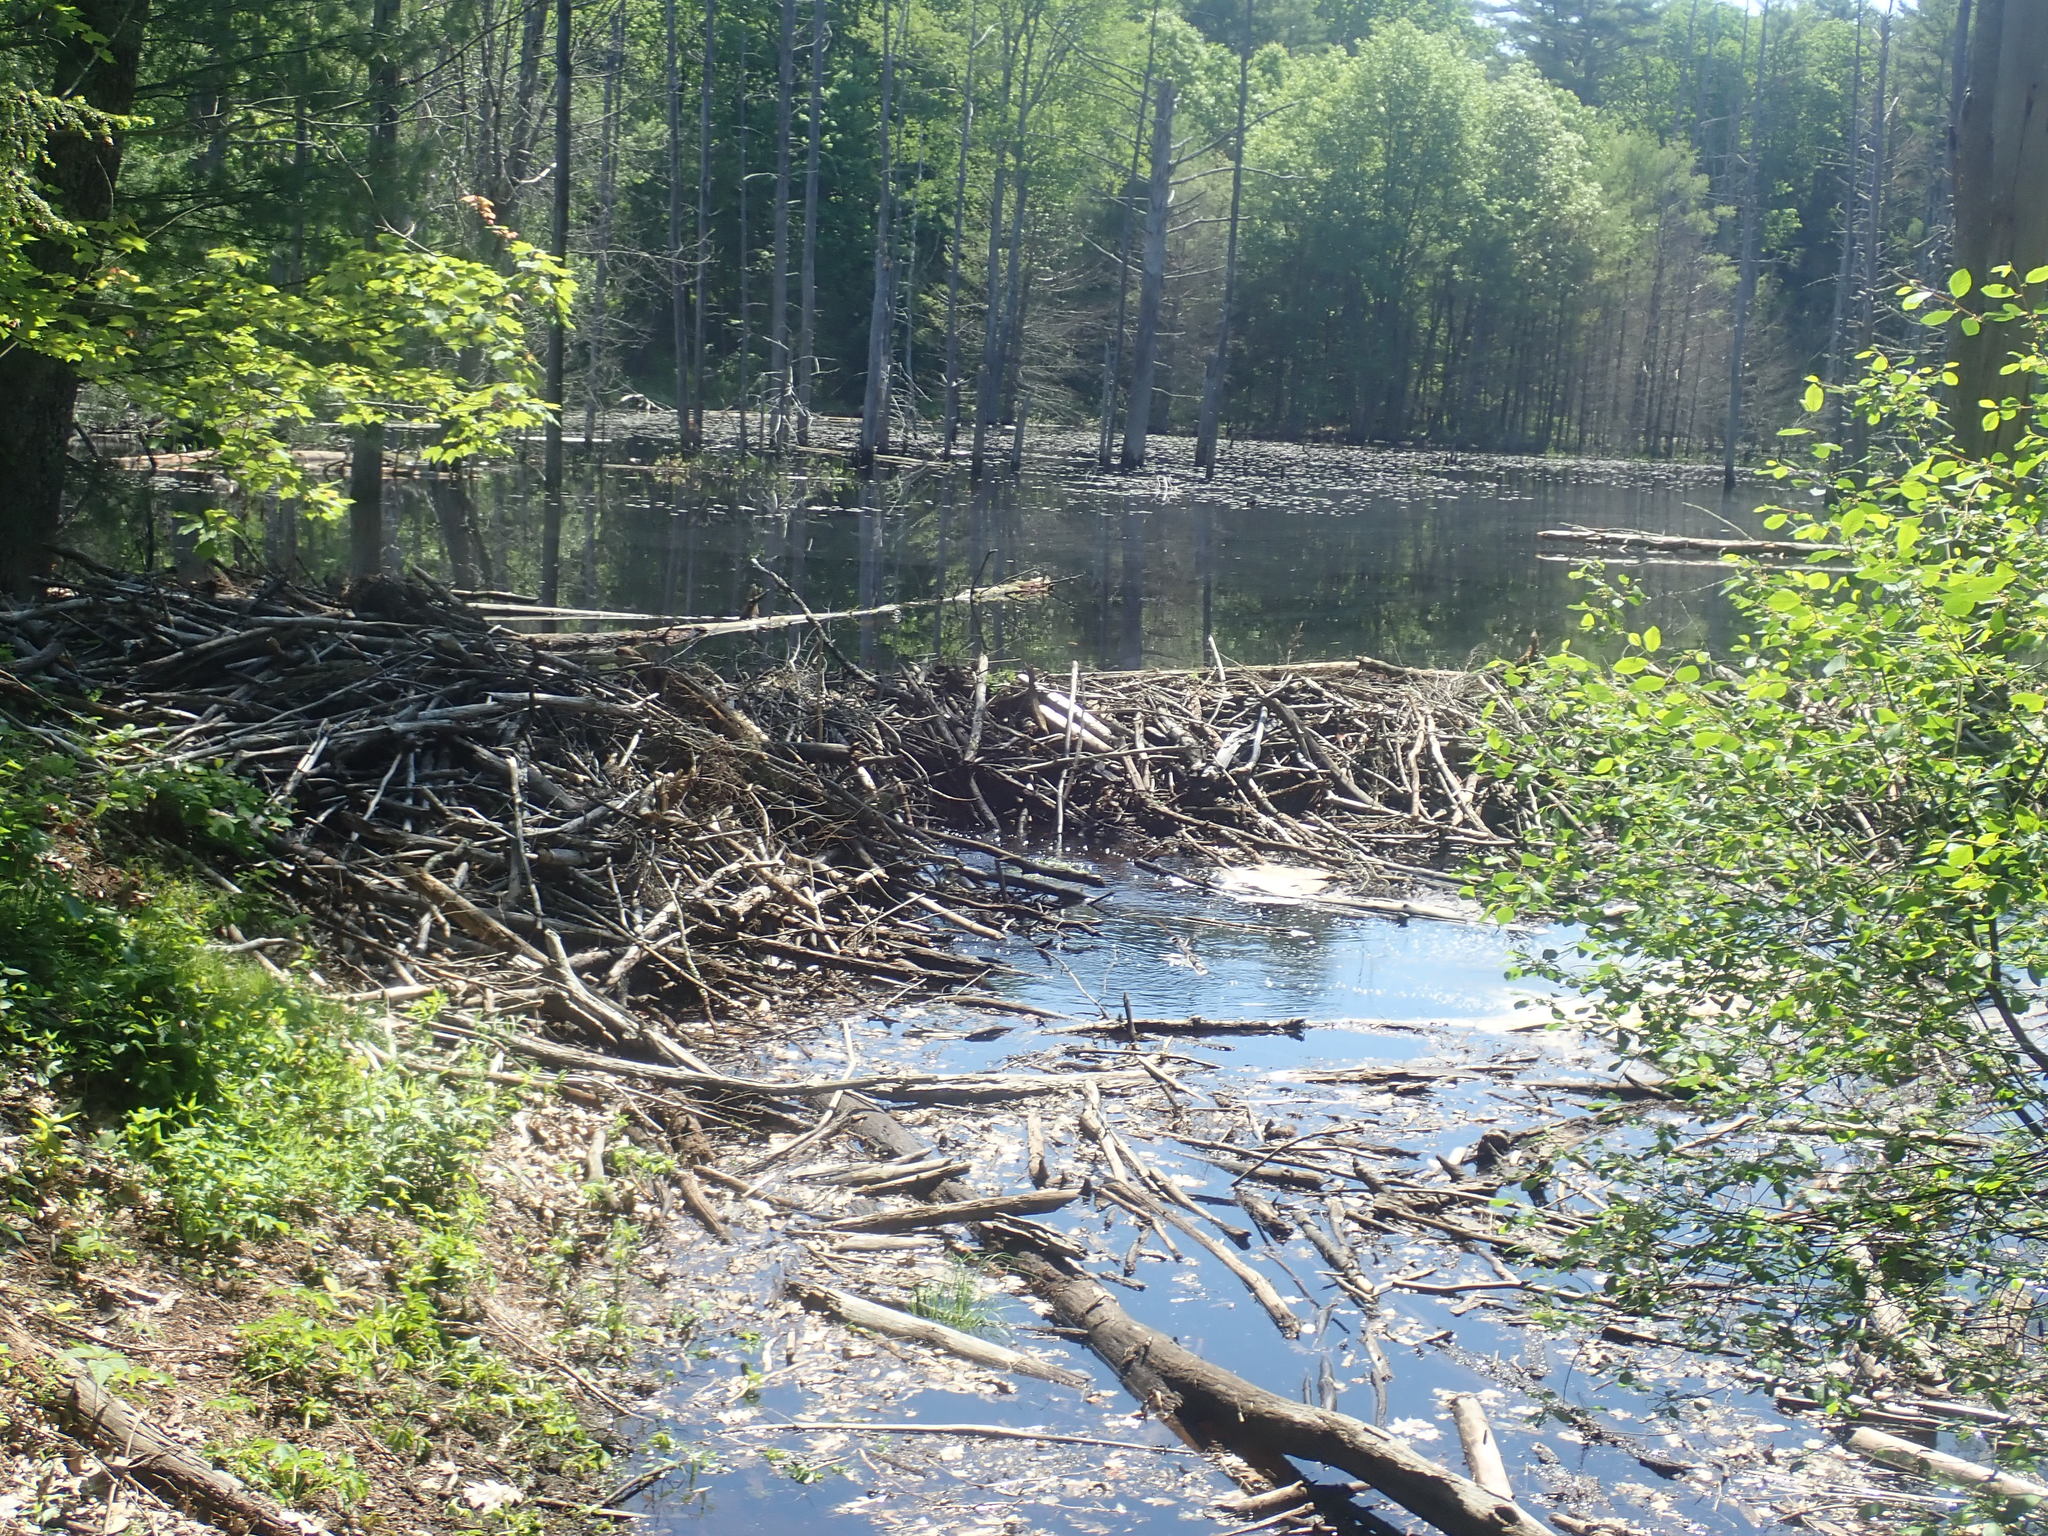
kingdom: Animalia
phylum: Chordata
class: Mammalia
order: Rodentia
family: Castoridae
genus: Castor
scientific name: Castor canadensis
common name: American beaver
